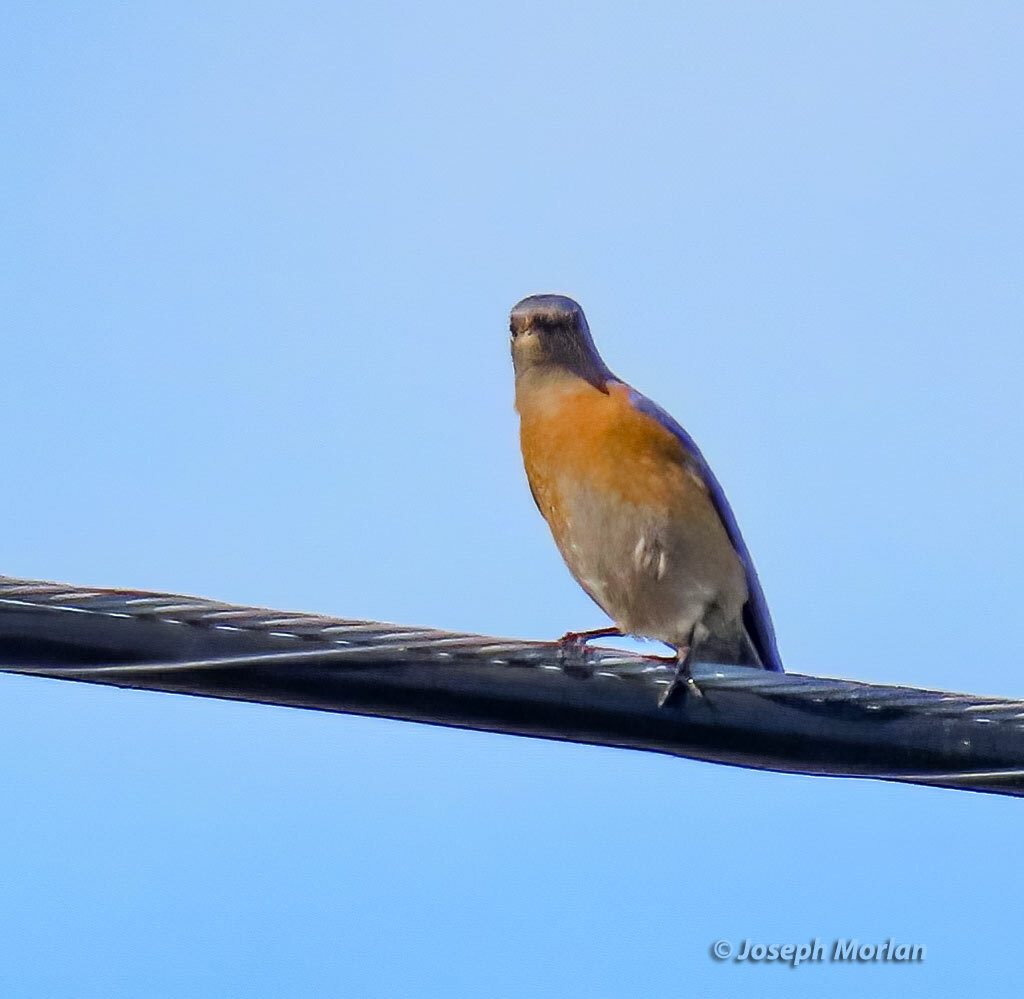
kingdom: Animalia
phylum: Chordata
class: Aves
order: Passeriformes
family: Turdidae
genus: Sialia
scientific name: Sialia mexicana
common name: Western bluebird
